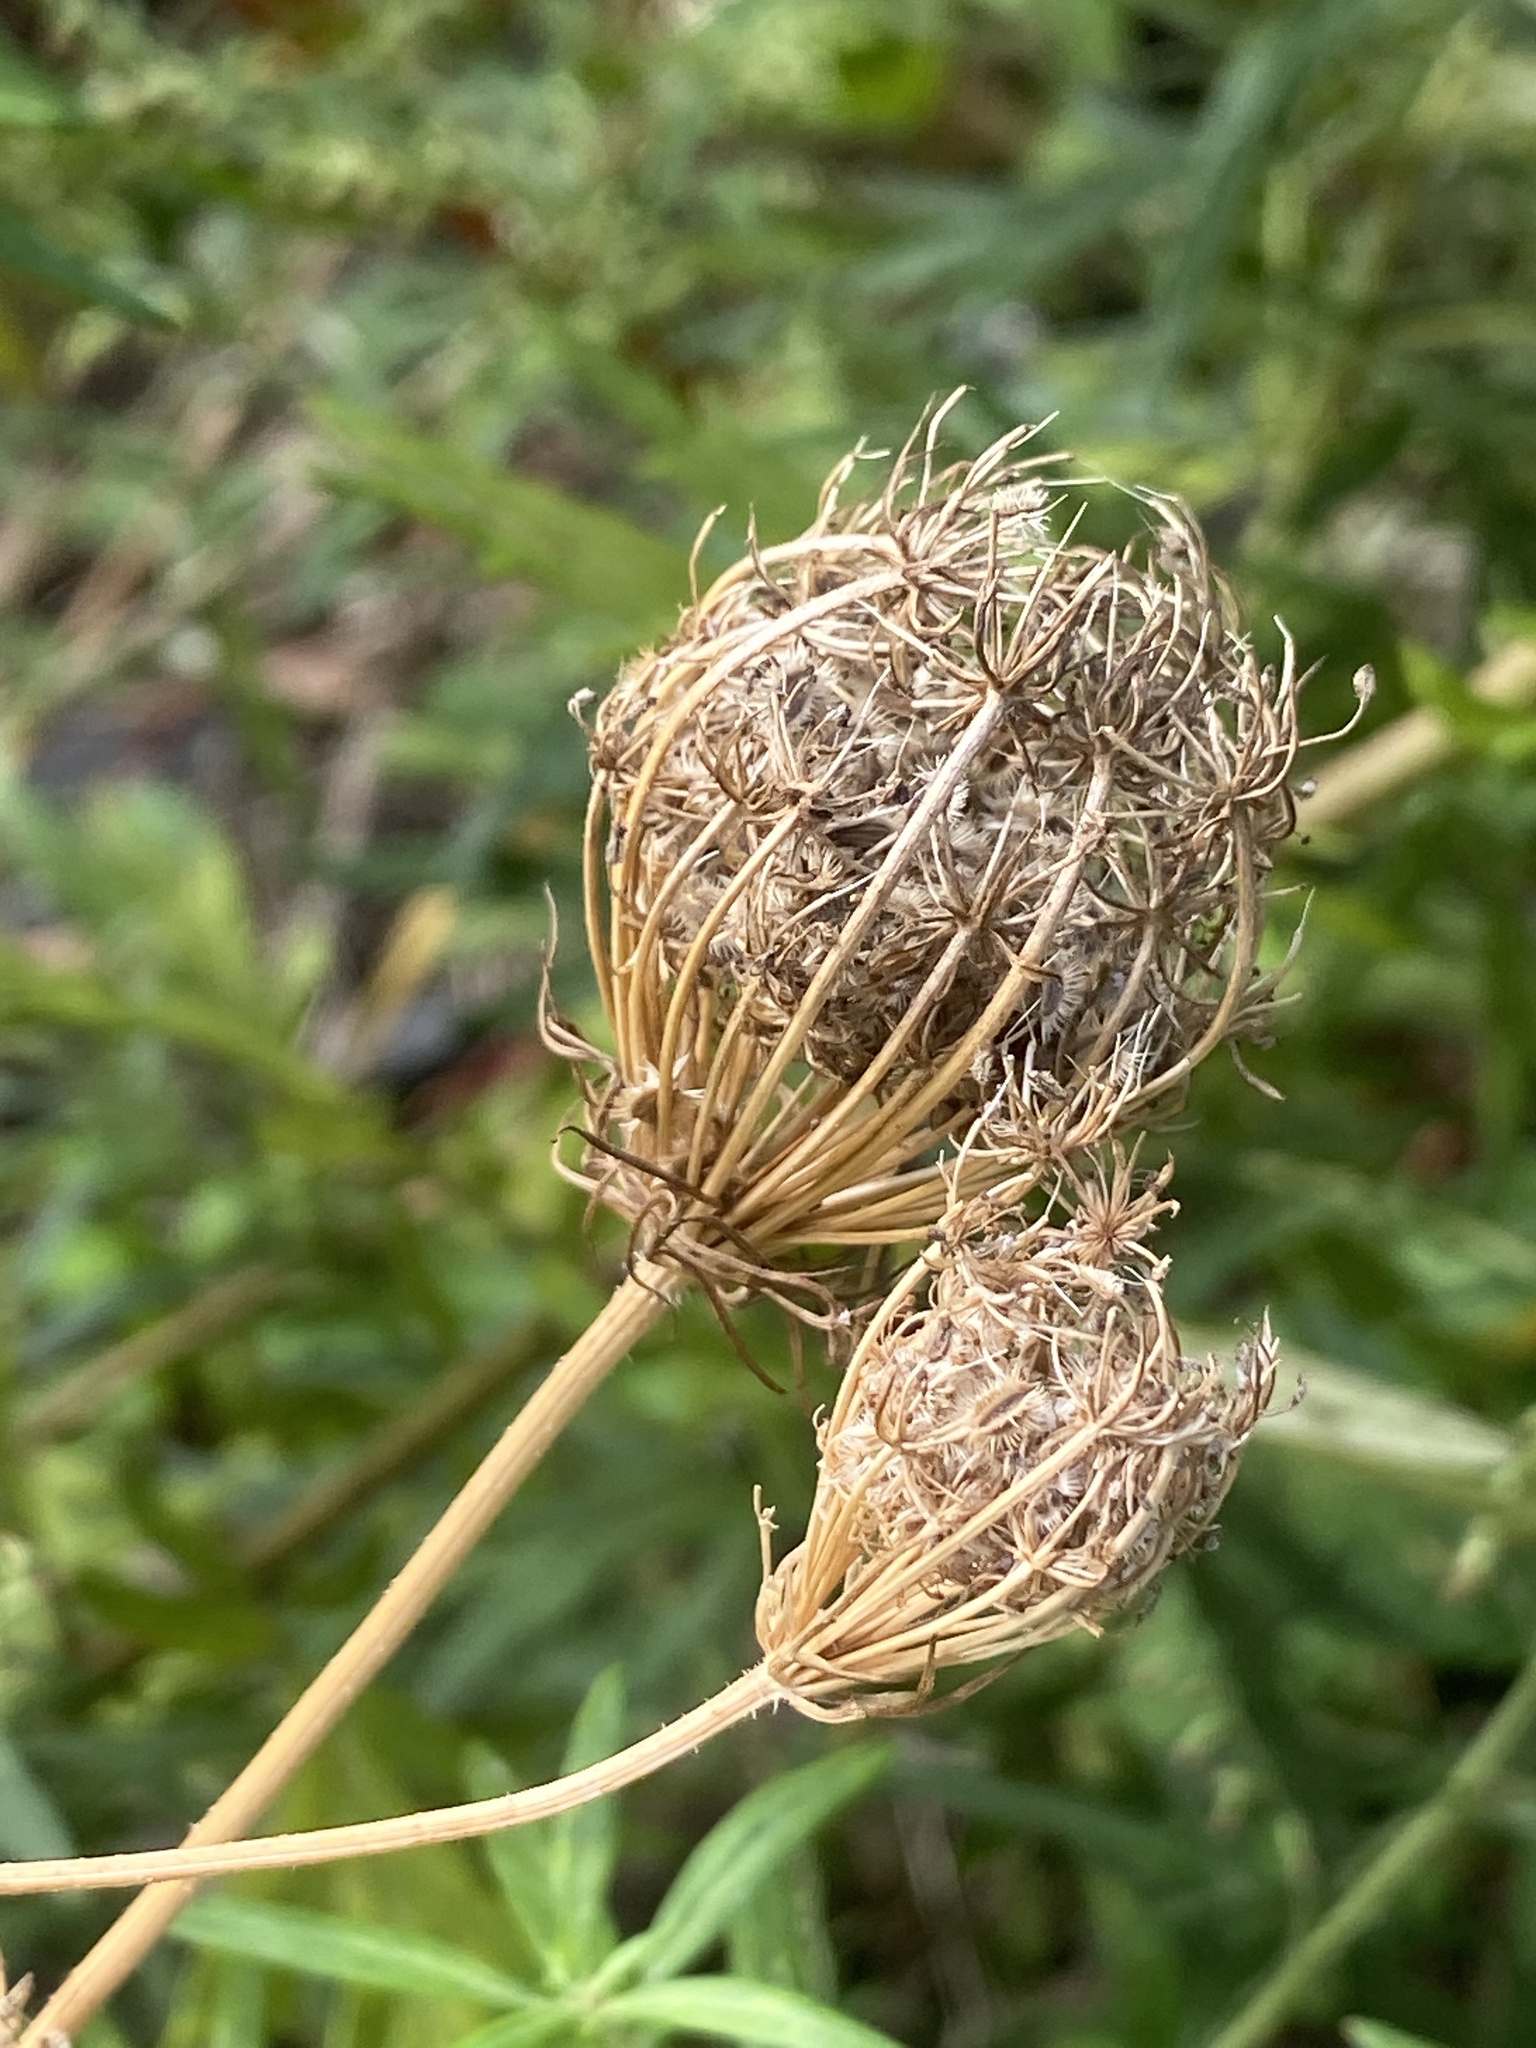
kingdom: Plantae
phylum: Tracheophyta
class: Magnoliopsida
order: Apiales
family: Apiaceae
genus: Daucus
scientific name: Daucus carota
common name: Wild carrot
